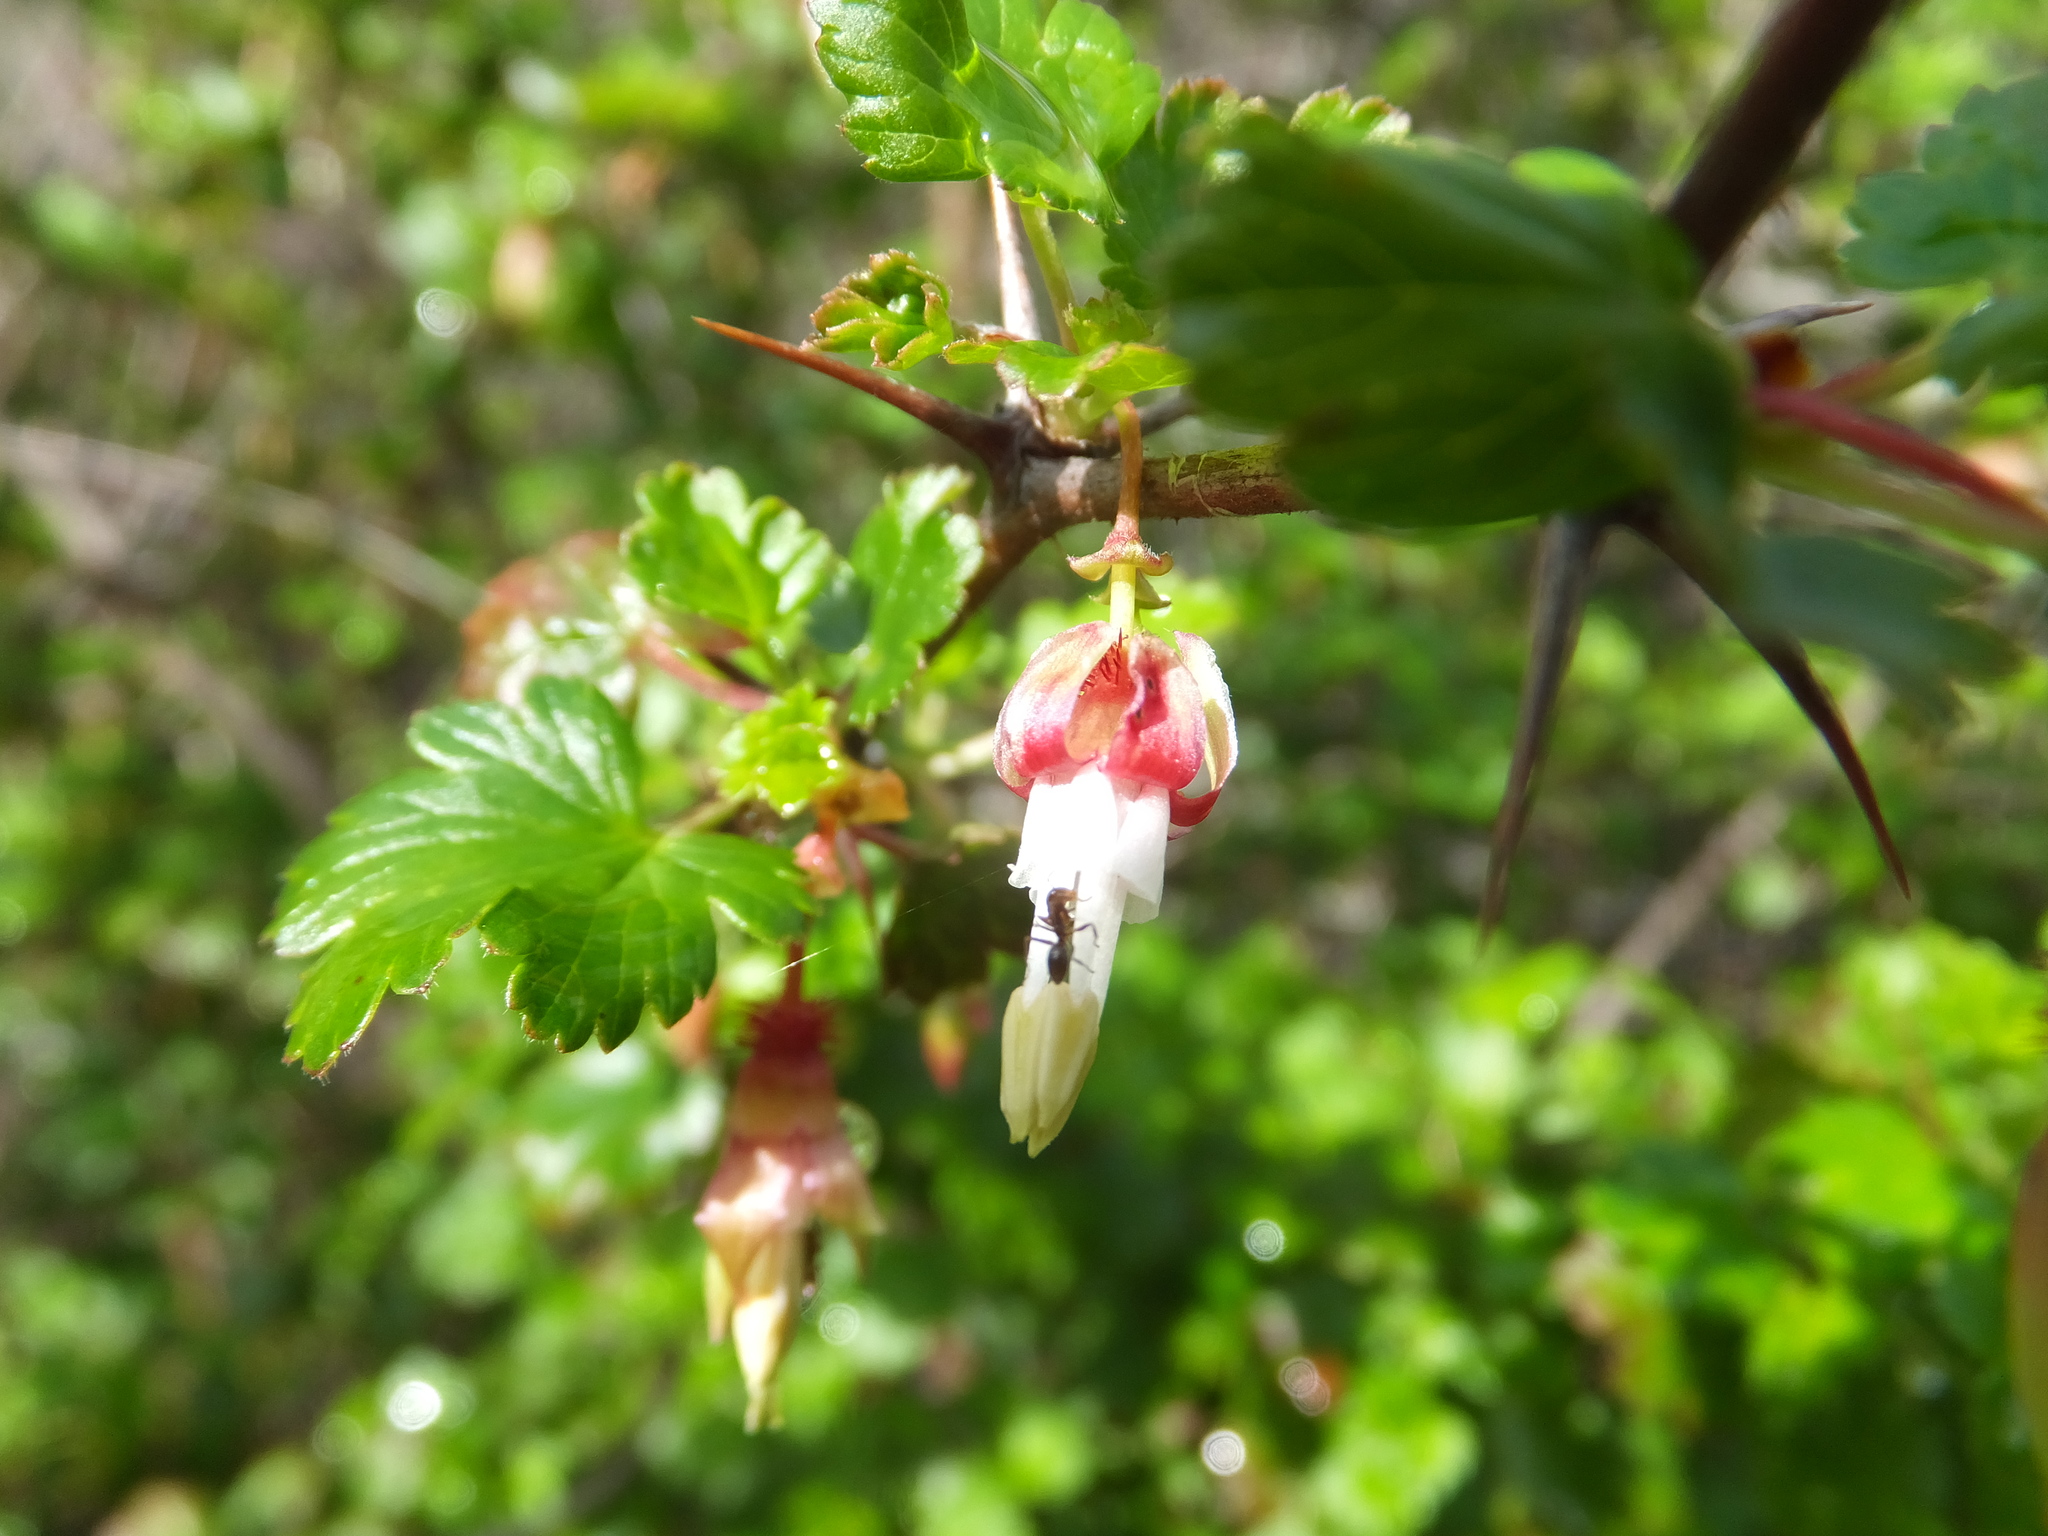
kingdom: Plantae
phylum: Tracheophyta
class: Magnoliopsida
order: Saxifragales
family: Grossulariaceae
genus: Ribes
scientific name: Ribes californicum
